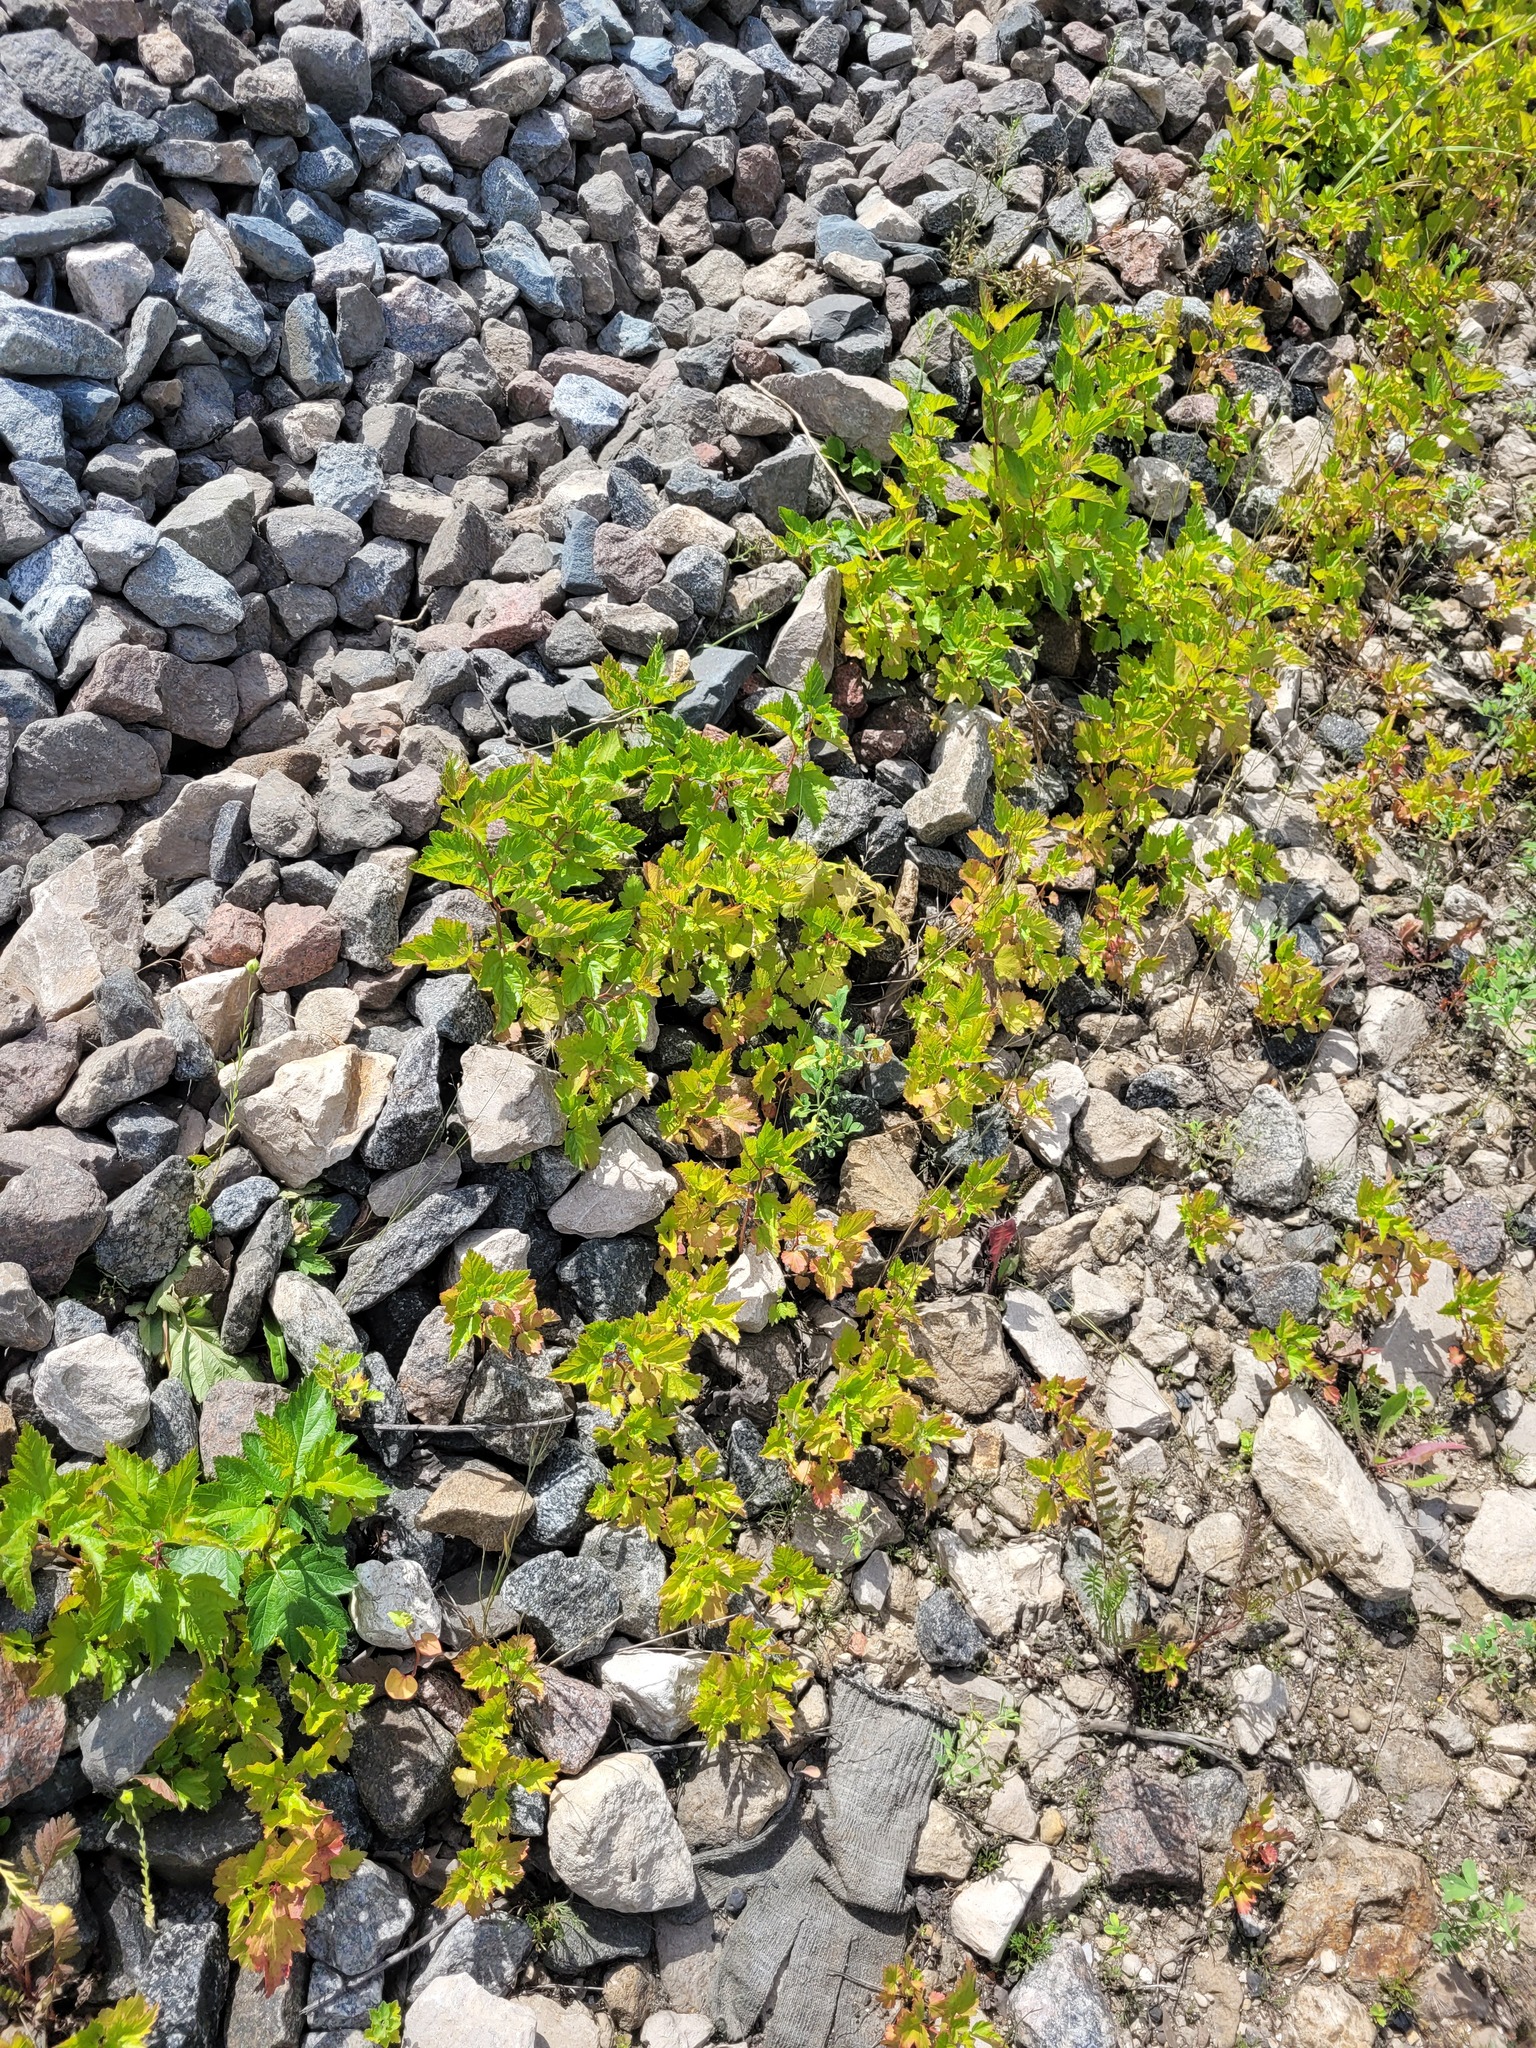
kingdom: Plantae
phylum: Tracheophyta
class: Magnoliopsida
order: Rosales
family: Rosaceae
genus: Physocarpus
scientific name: Physocarpus opulifolius
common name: Ninebark
